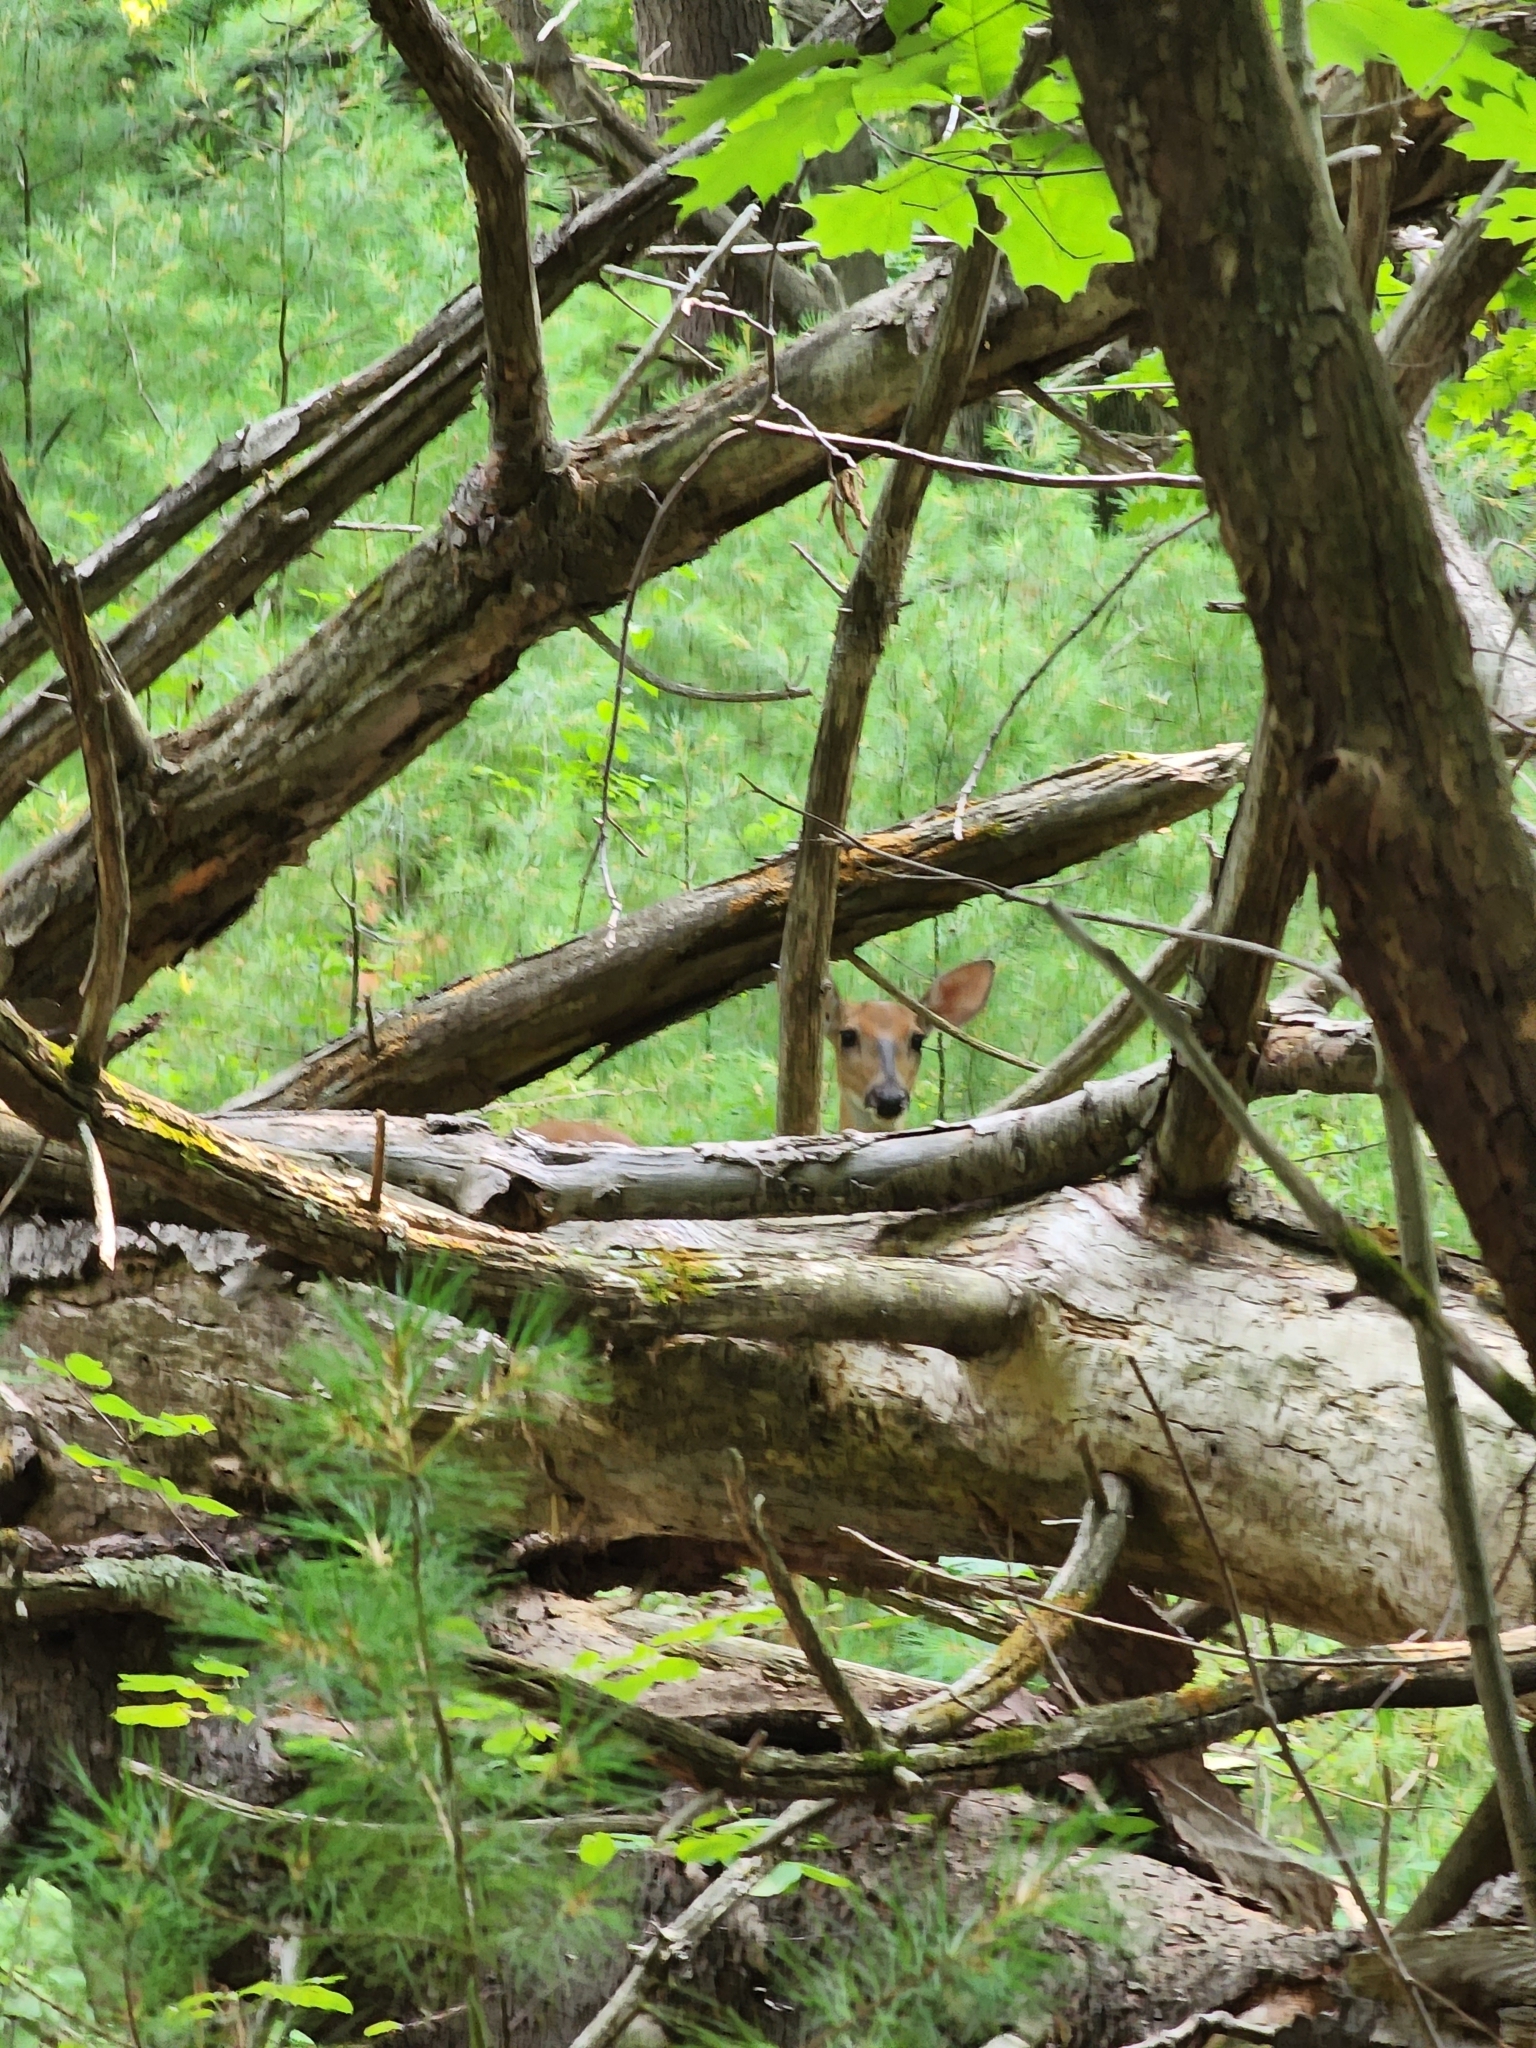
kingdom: Animalia
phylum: Chordata
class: Mammalia
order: Artiodactyla
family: Cervidae
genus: Odocoileus
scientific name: Odocoileus virginianus
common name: White-tailed deer
